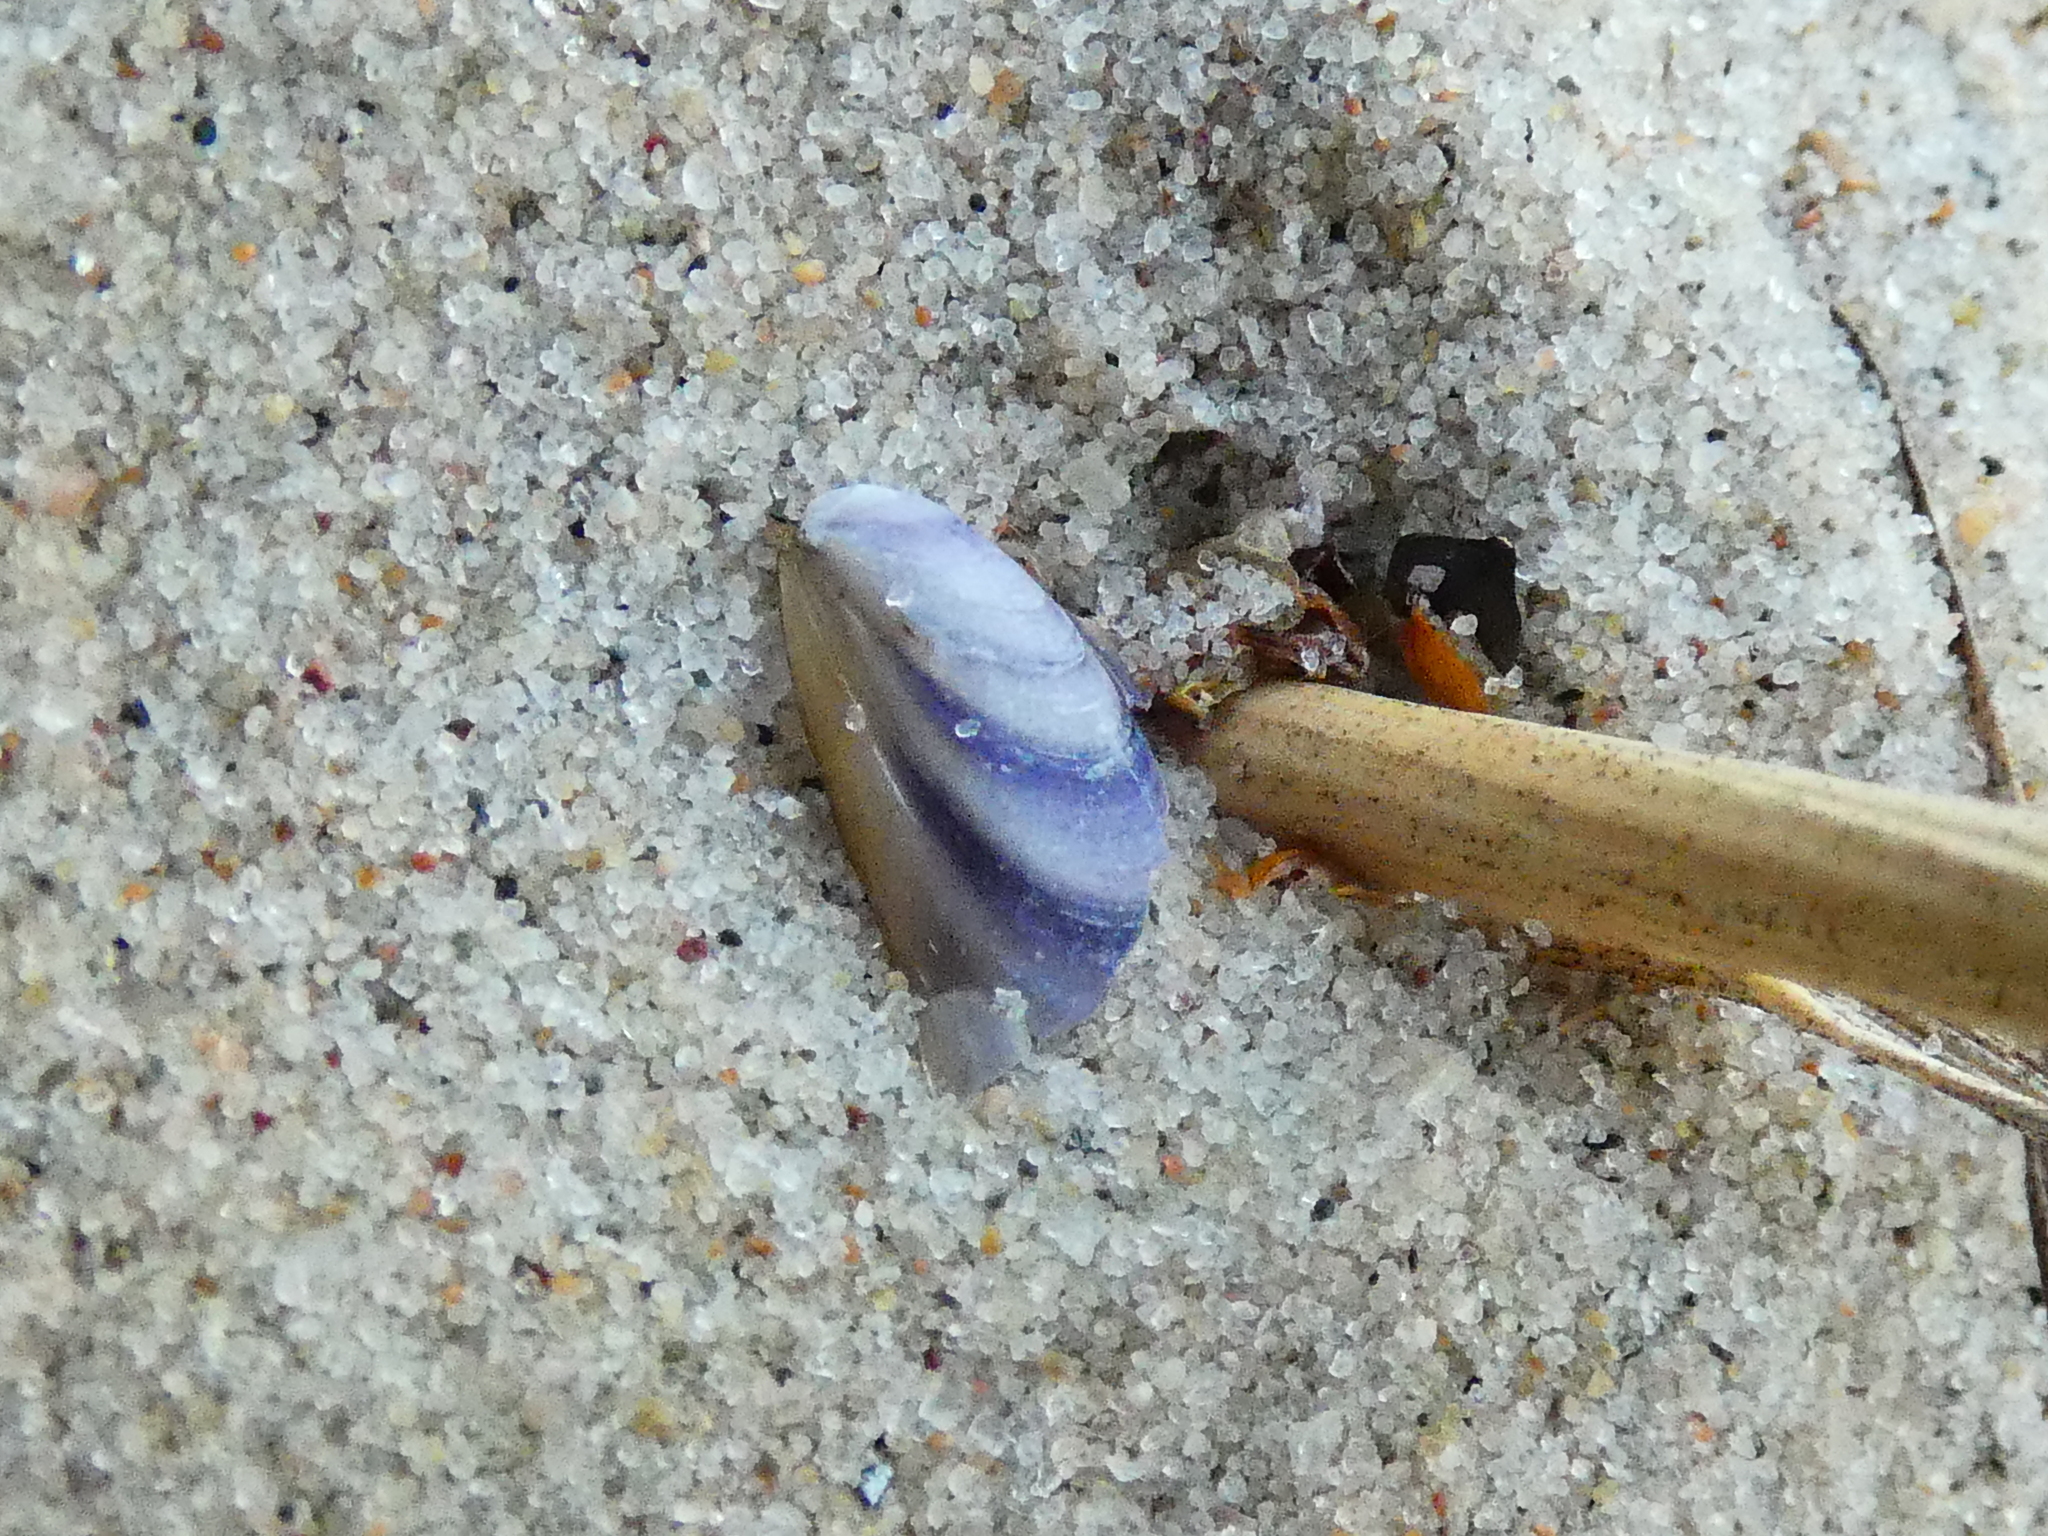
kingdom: Animalia
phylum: Mollusca
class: Bivalvia
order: Mytilida
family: Mytilidae
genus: Mytilus
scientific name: Mytilus trossulus
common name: Northern blue mussel
